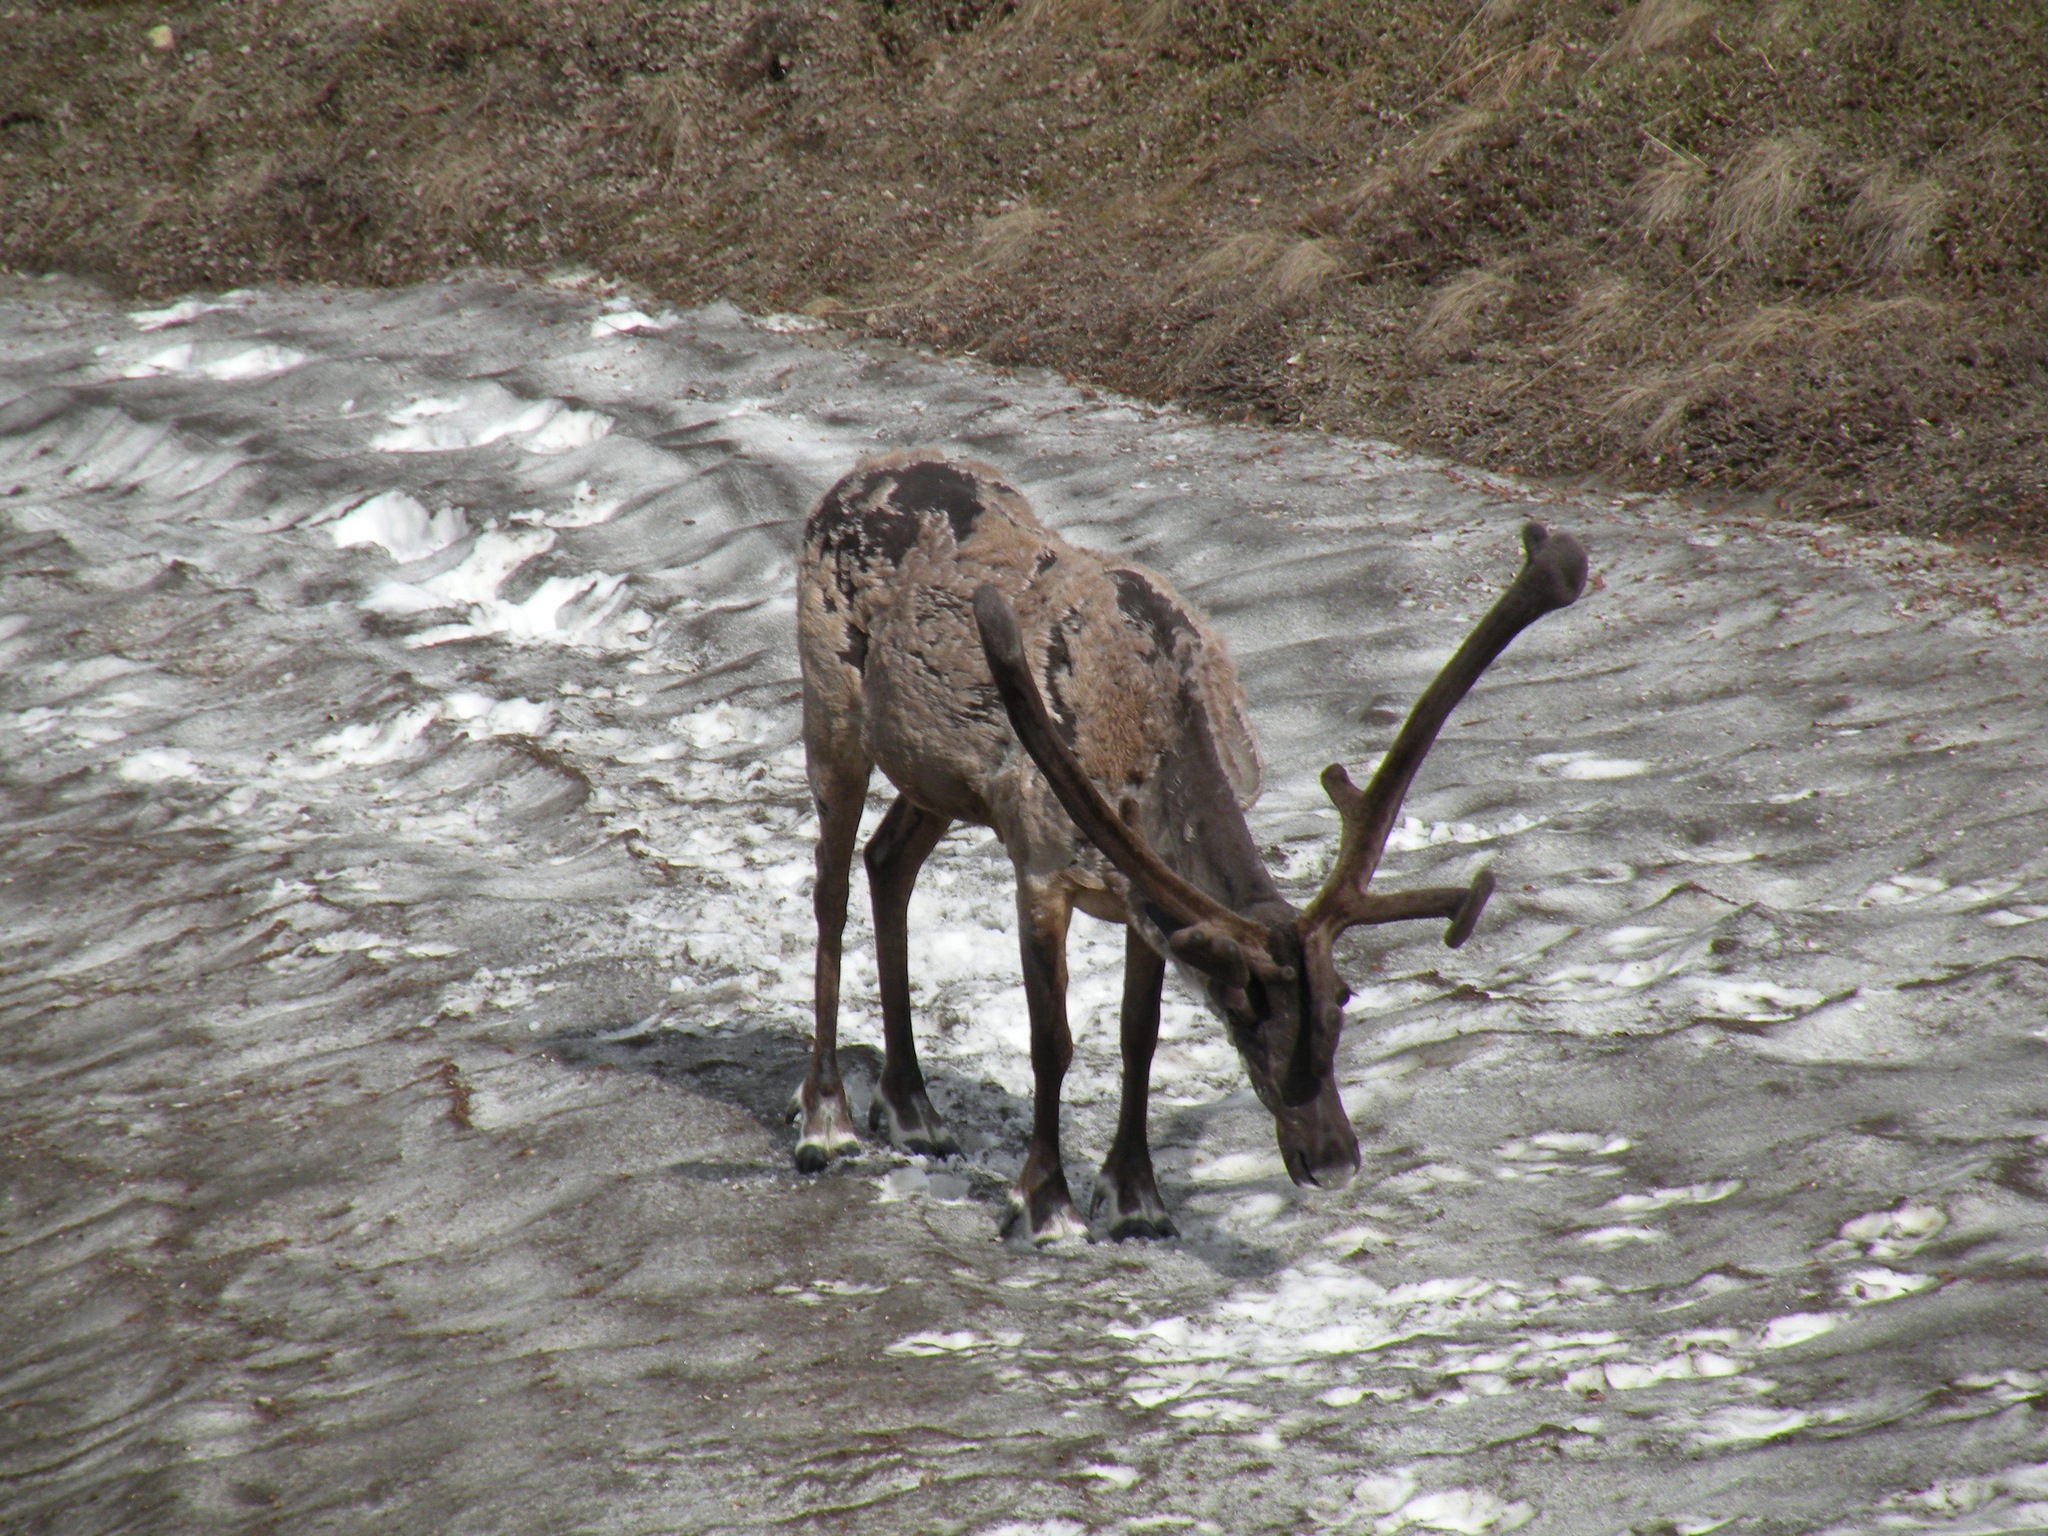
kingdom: Animalia
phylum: Chordata
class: Mammalia
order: Artiodactyla
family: Cervidae
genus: Rangifer
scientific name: Rangifer tarandus
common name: Reindeer
